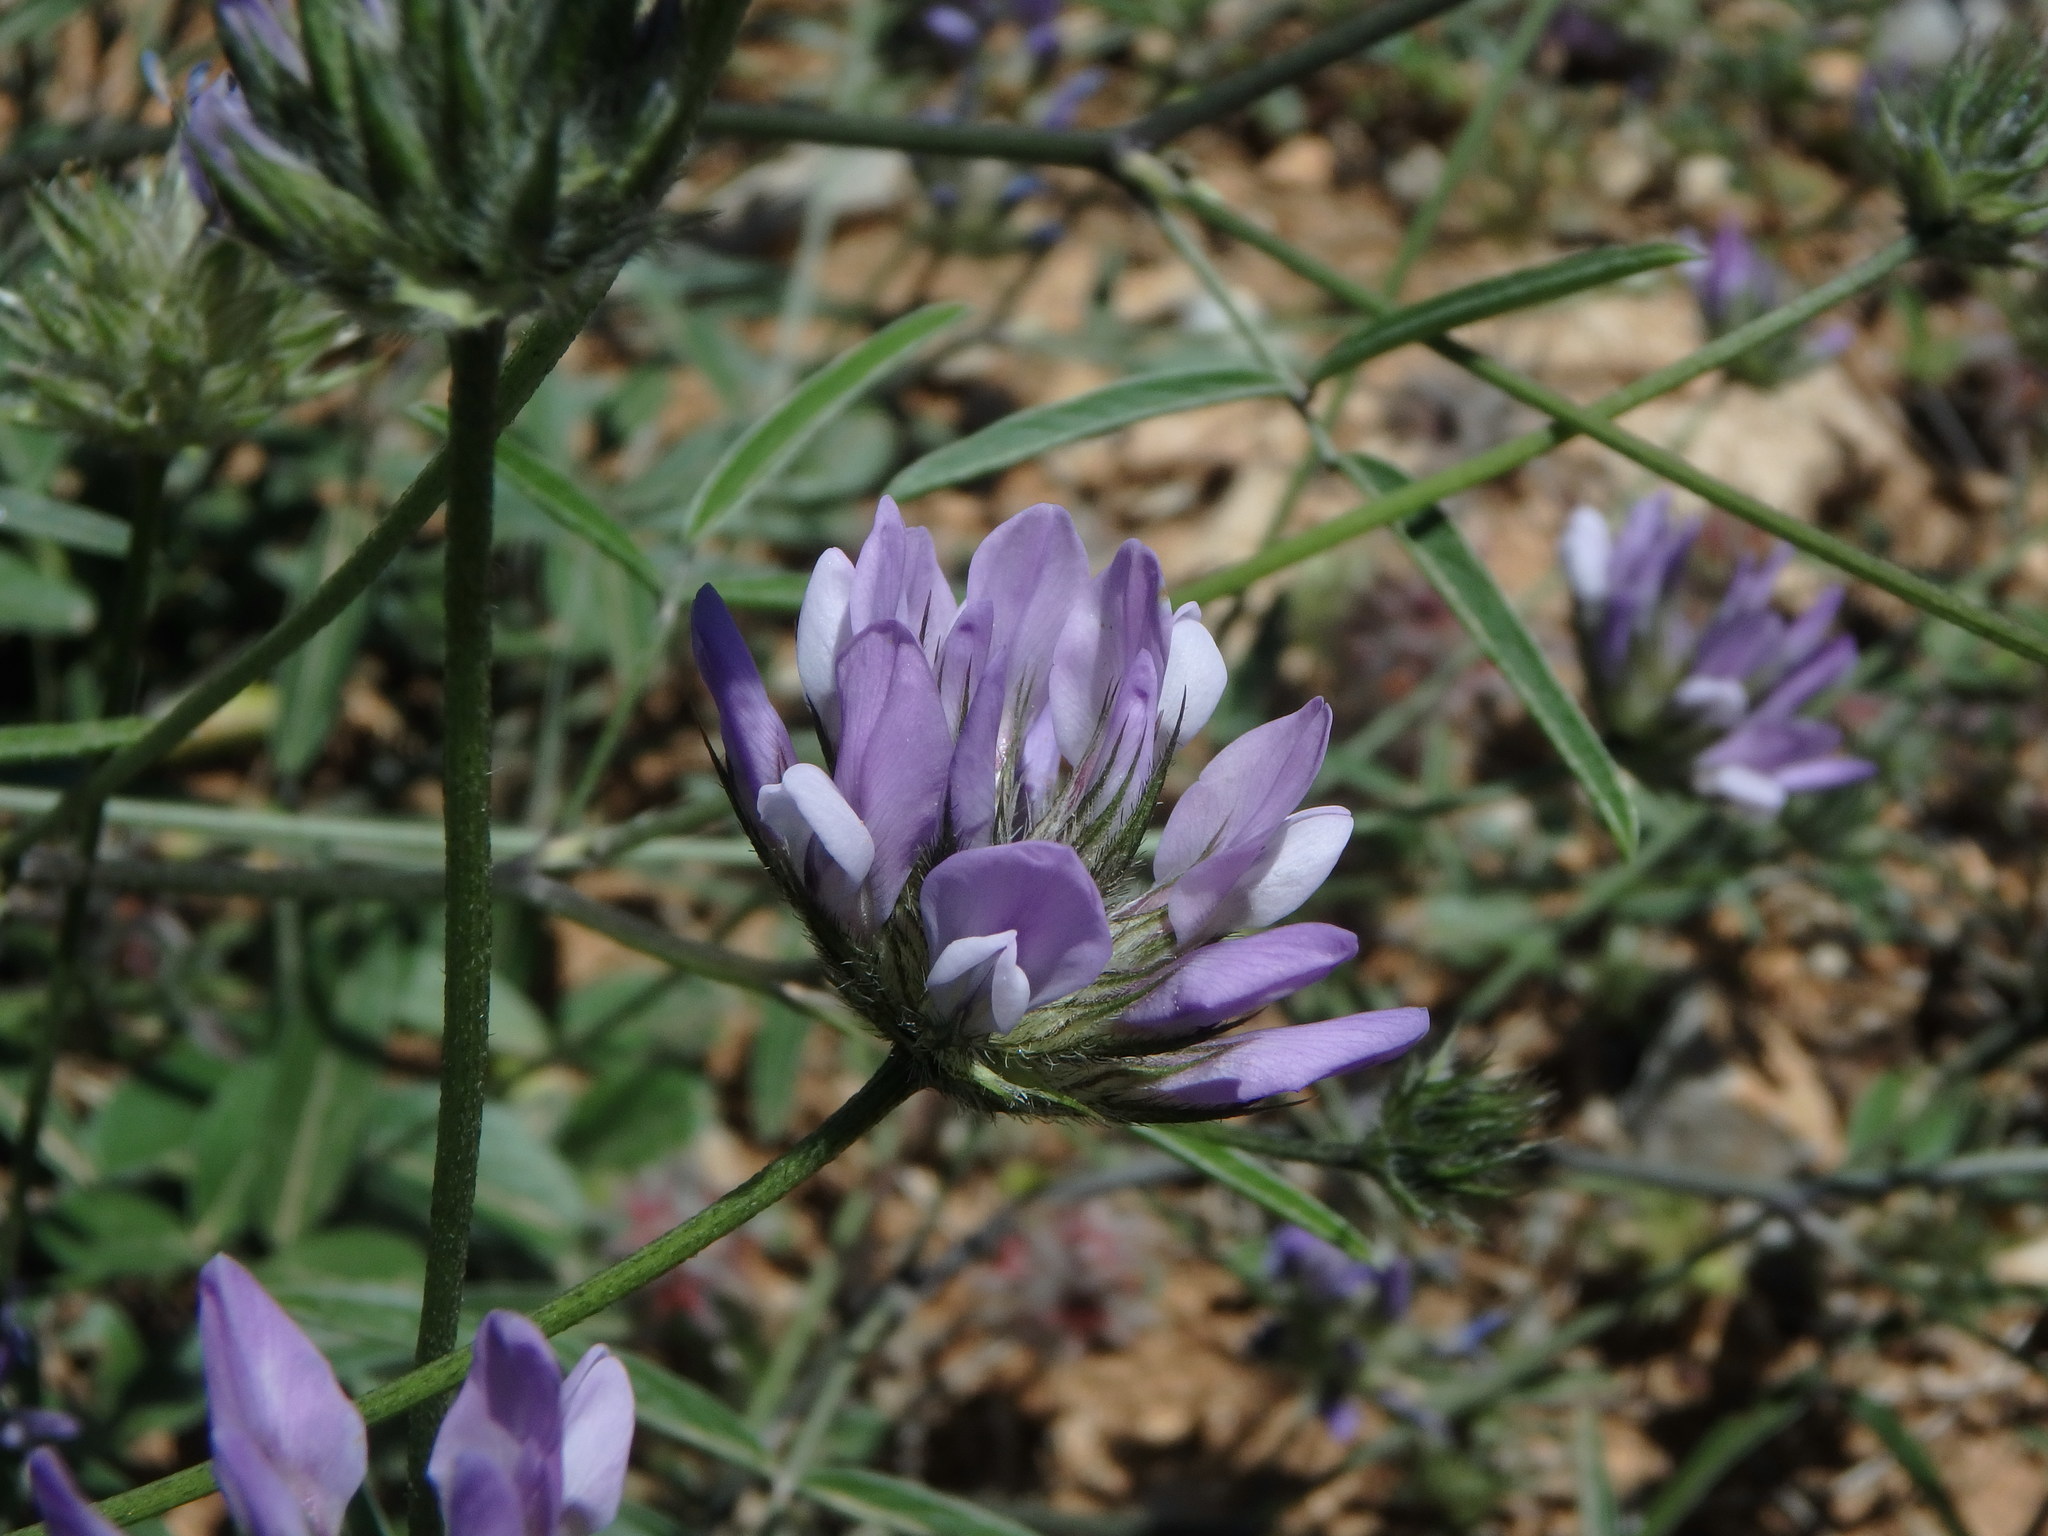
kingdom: Plantae
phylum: Tracheophyta
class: Magnoliopsida
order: Fabales
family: Fabaceae
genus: Bituminaria
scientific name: Bituminaria bituminosa
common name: Arabian pea
